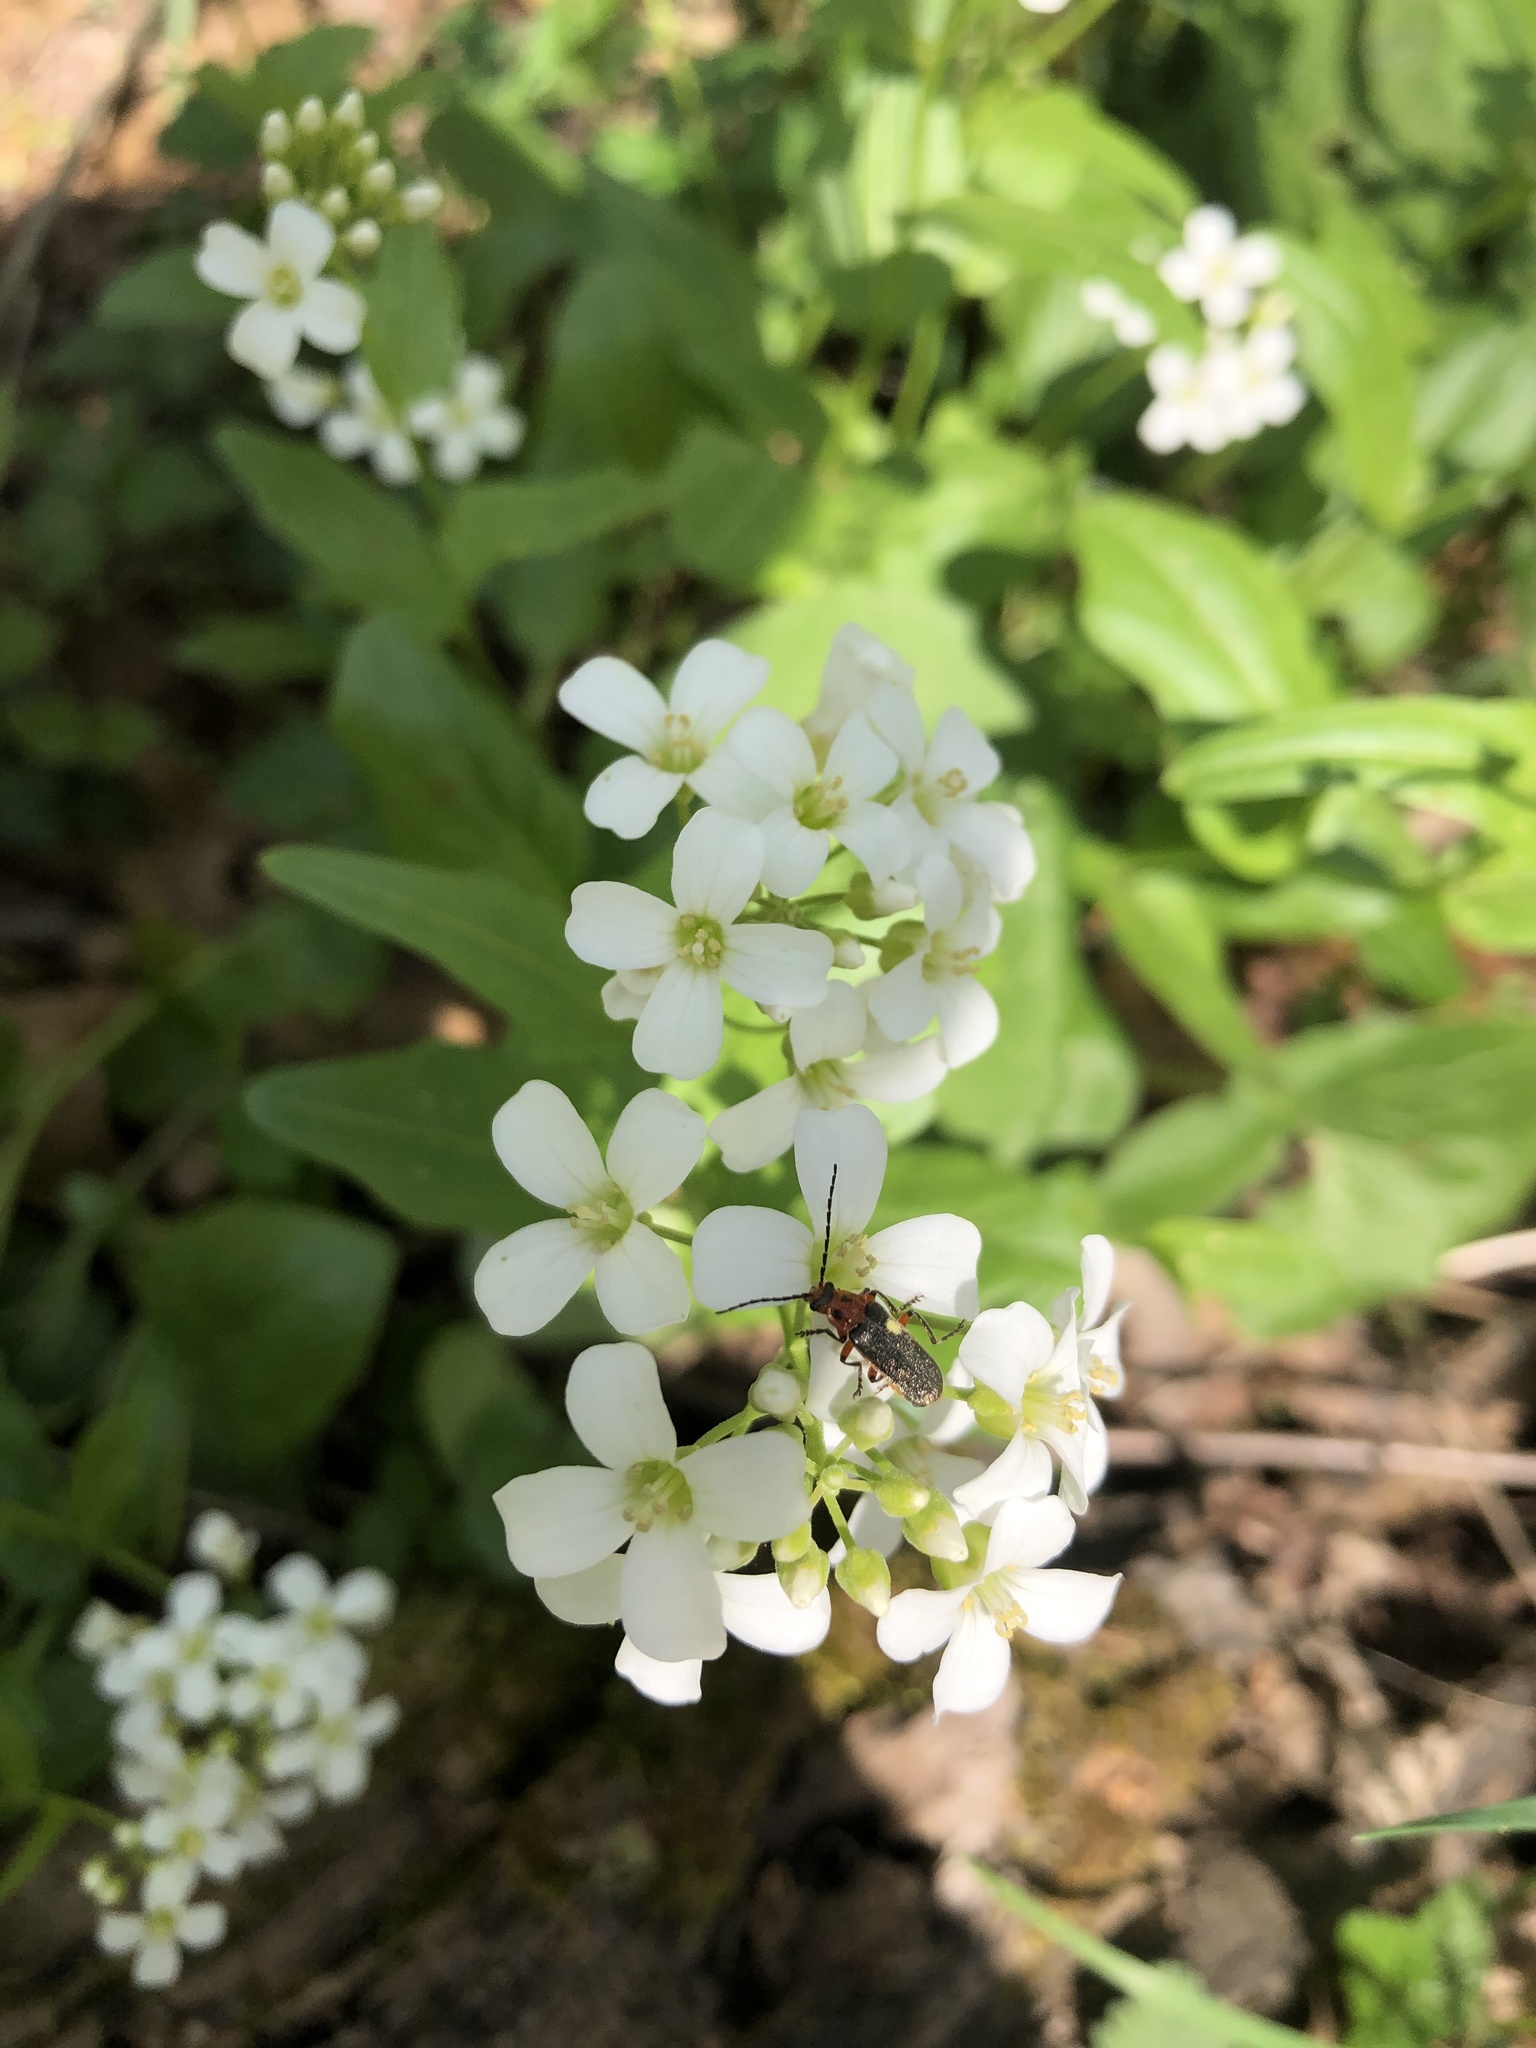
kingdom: Animalia
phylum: Arthropoda
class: Insecta
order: Coleoptera
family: Cantharidae
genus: Atalantycha
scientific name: Atalantycha bilineata
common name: Two-lined leatherwing
